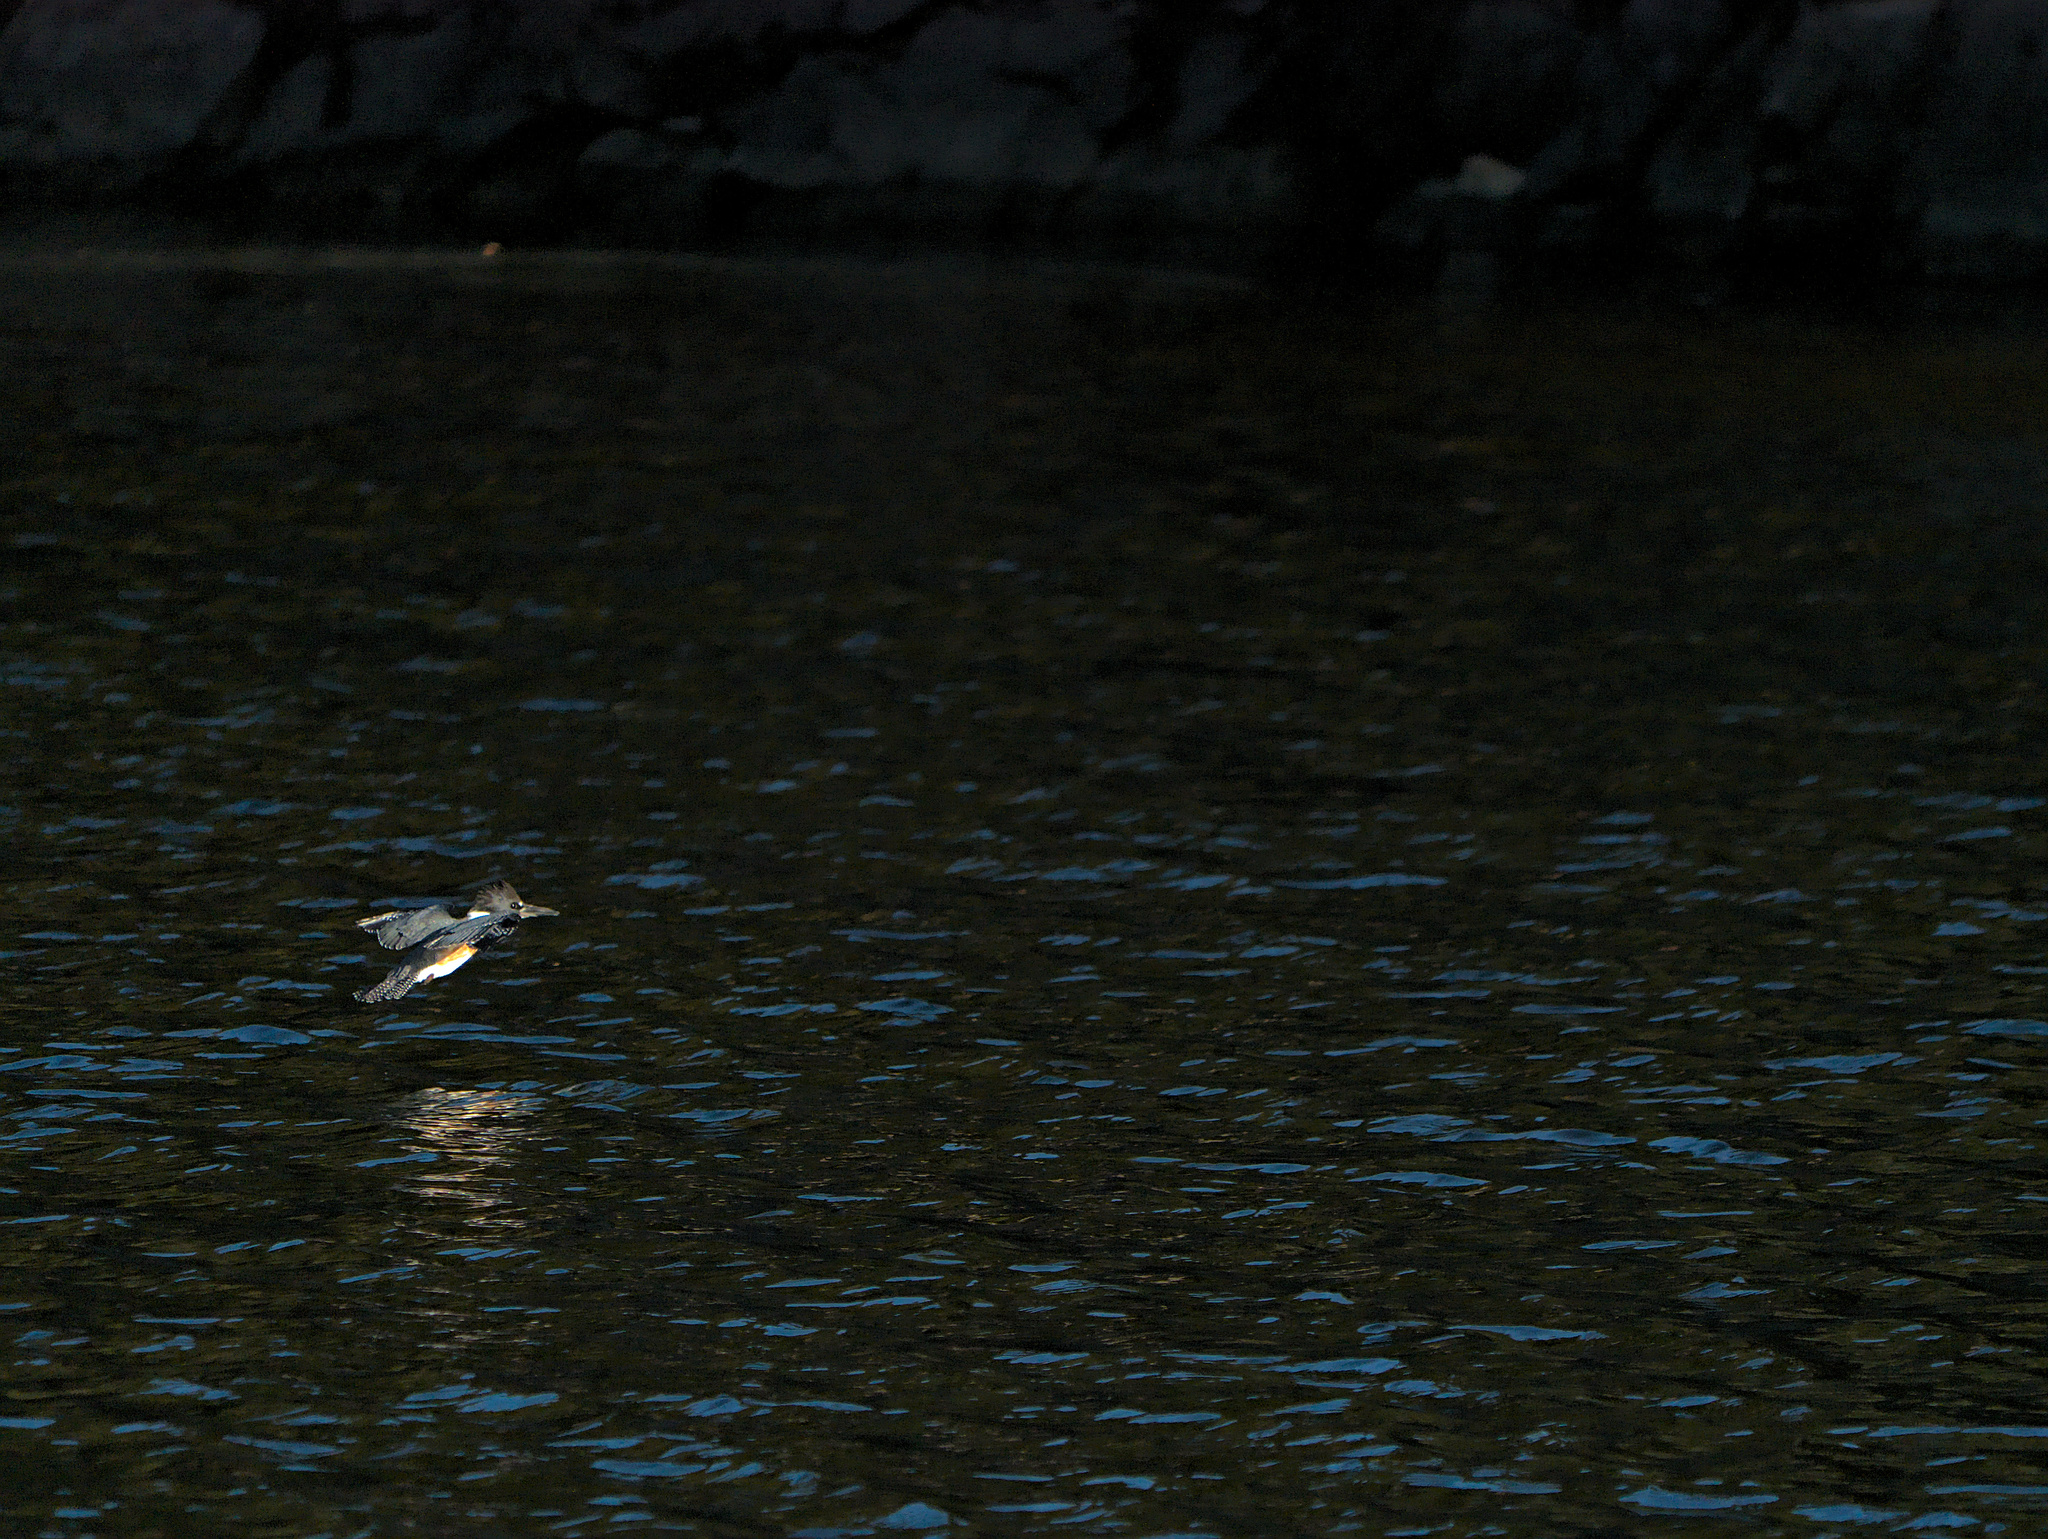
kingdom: Animalia
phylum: Chordata
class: Aves
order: Coraciiformes
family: Alcedinidae
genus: Megaceryle
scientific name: Megaceryle alcyon
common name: Belted kingfisher
